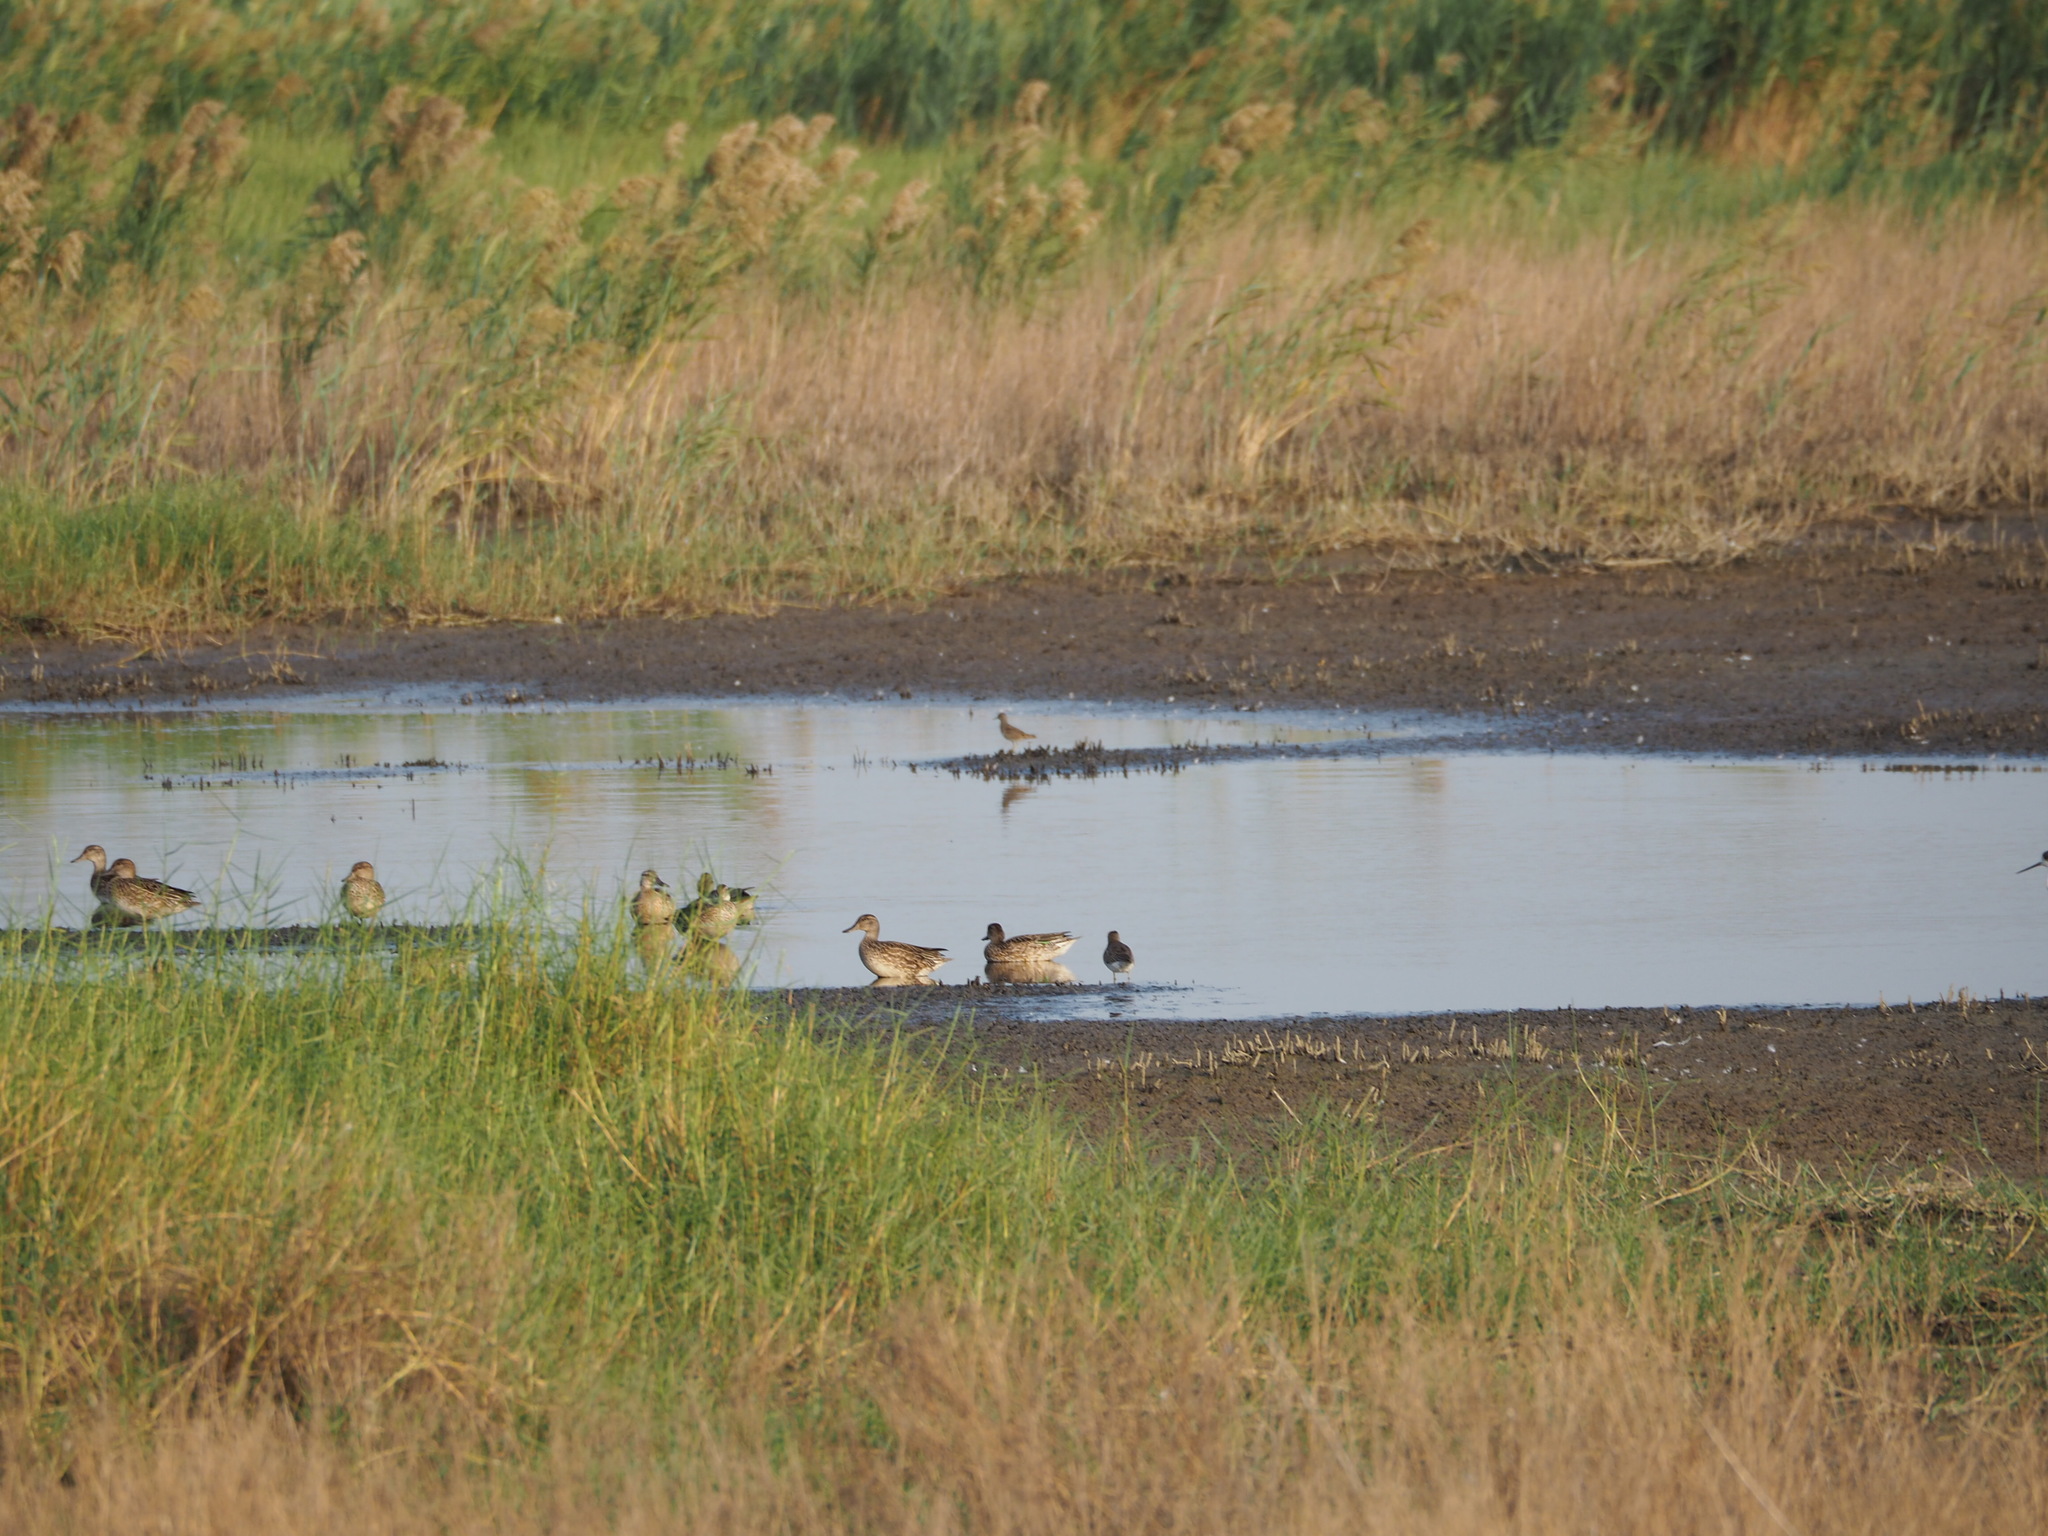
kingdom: Animalia
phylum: Chordata
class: Aves
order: Anseriformes
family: Anatidae
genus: Anas
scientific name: Anas crecca
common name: Eurasian teal
